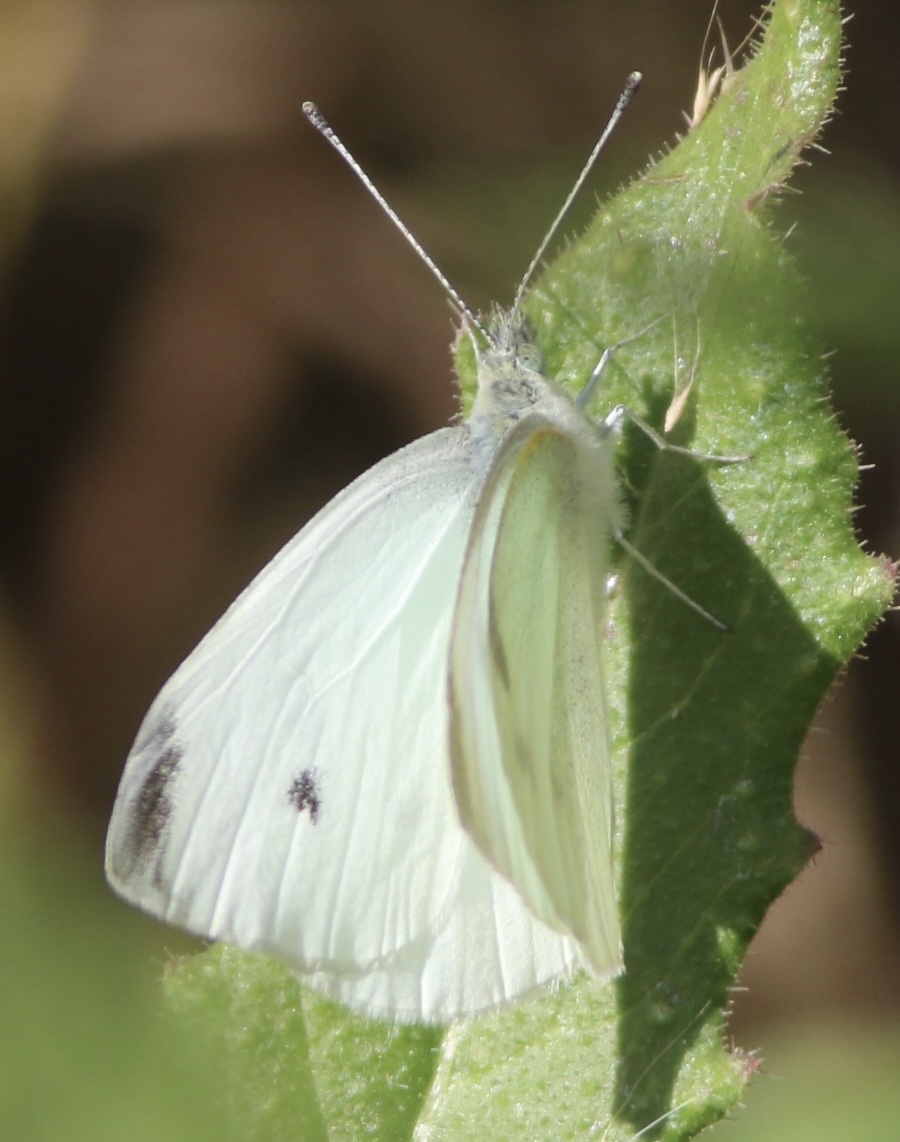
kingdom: Animalia
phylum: Arthropoda
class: Insecta
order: Lepidoptera
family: Pieridae
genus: Pieris
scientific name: Pieris rapae
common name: Small white
